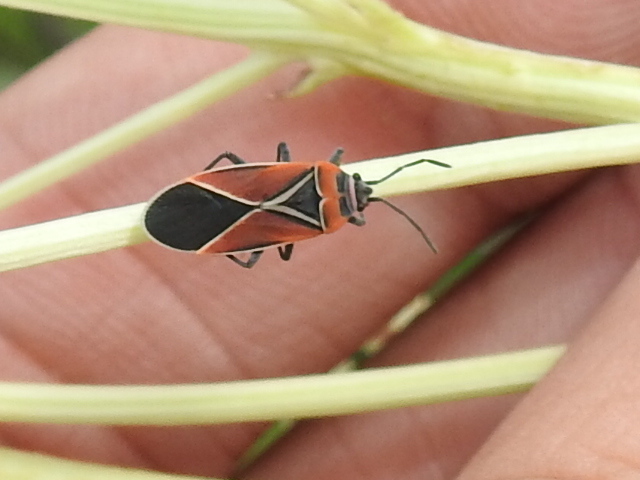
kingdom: Animalia
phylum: Arthropoda
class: Insecta
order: Hemiptera
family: Lygaeidae
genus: Neacoryphus
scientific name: Neacoryphus bicrucis
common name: Lygaeid bug
